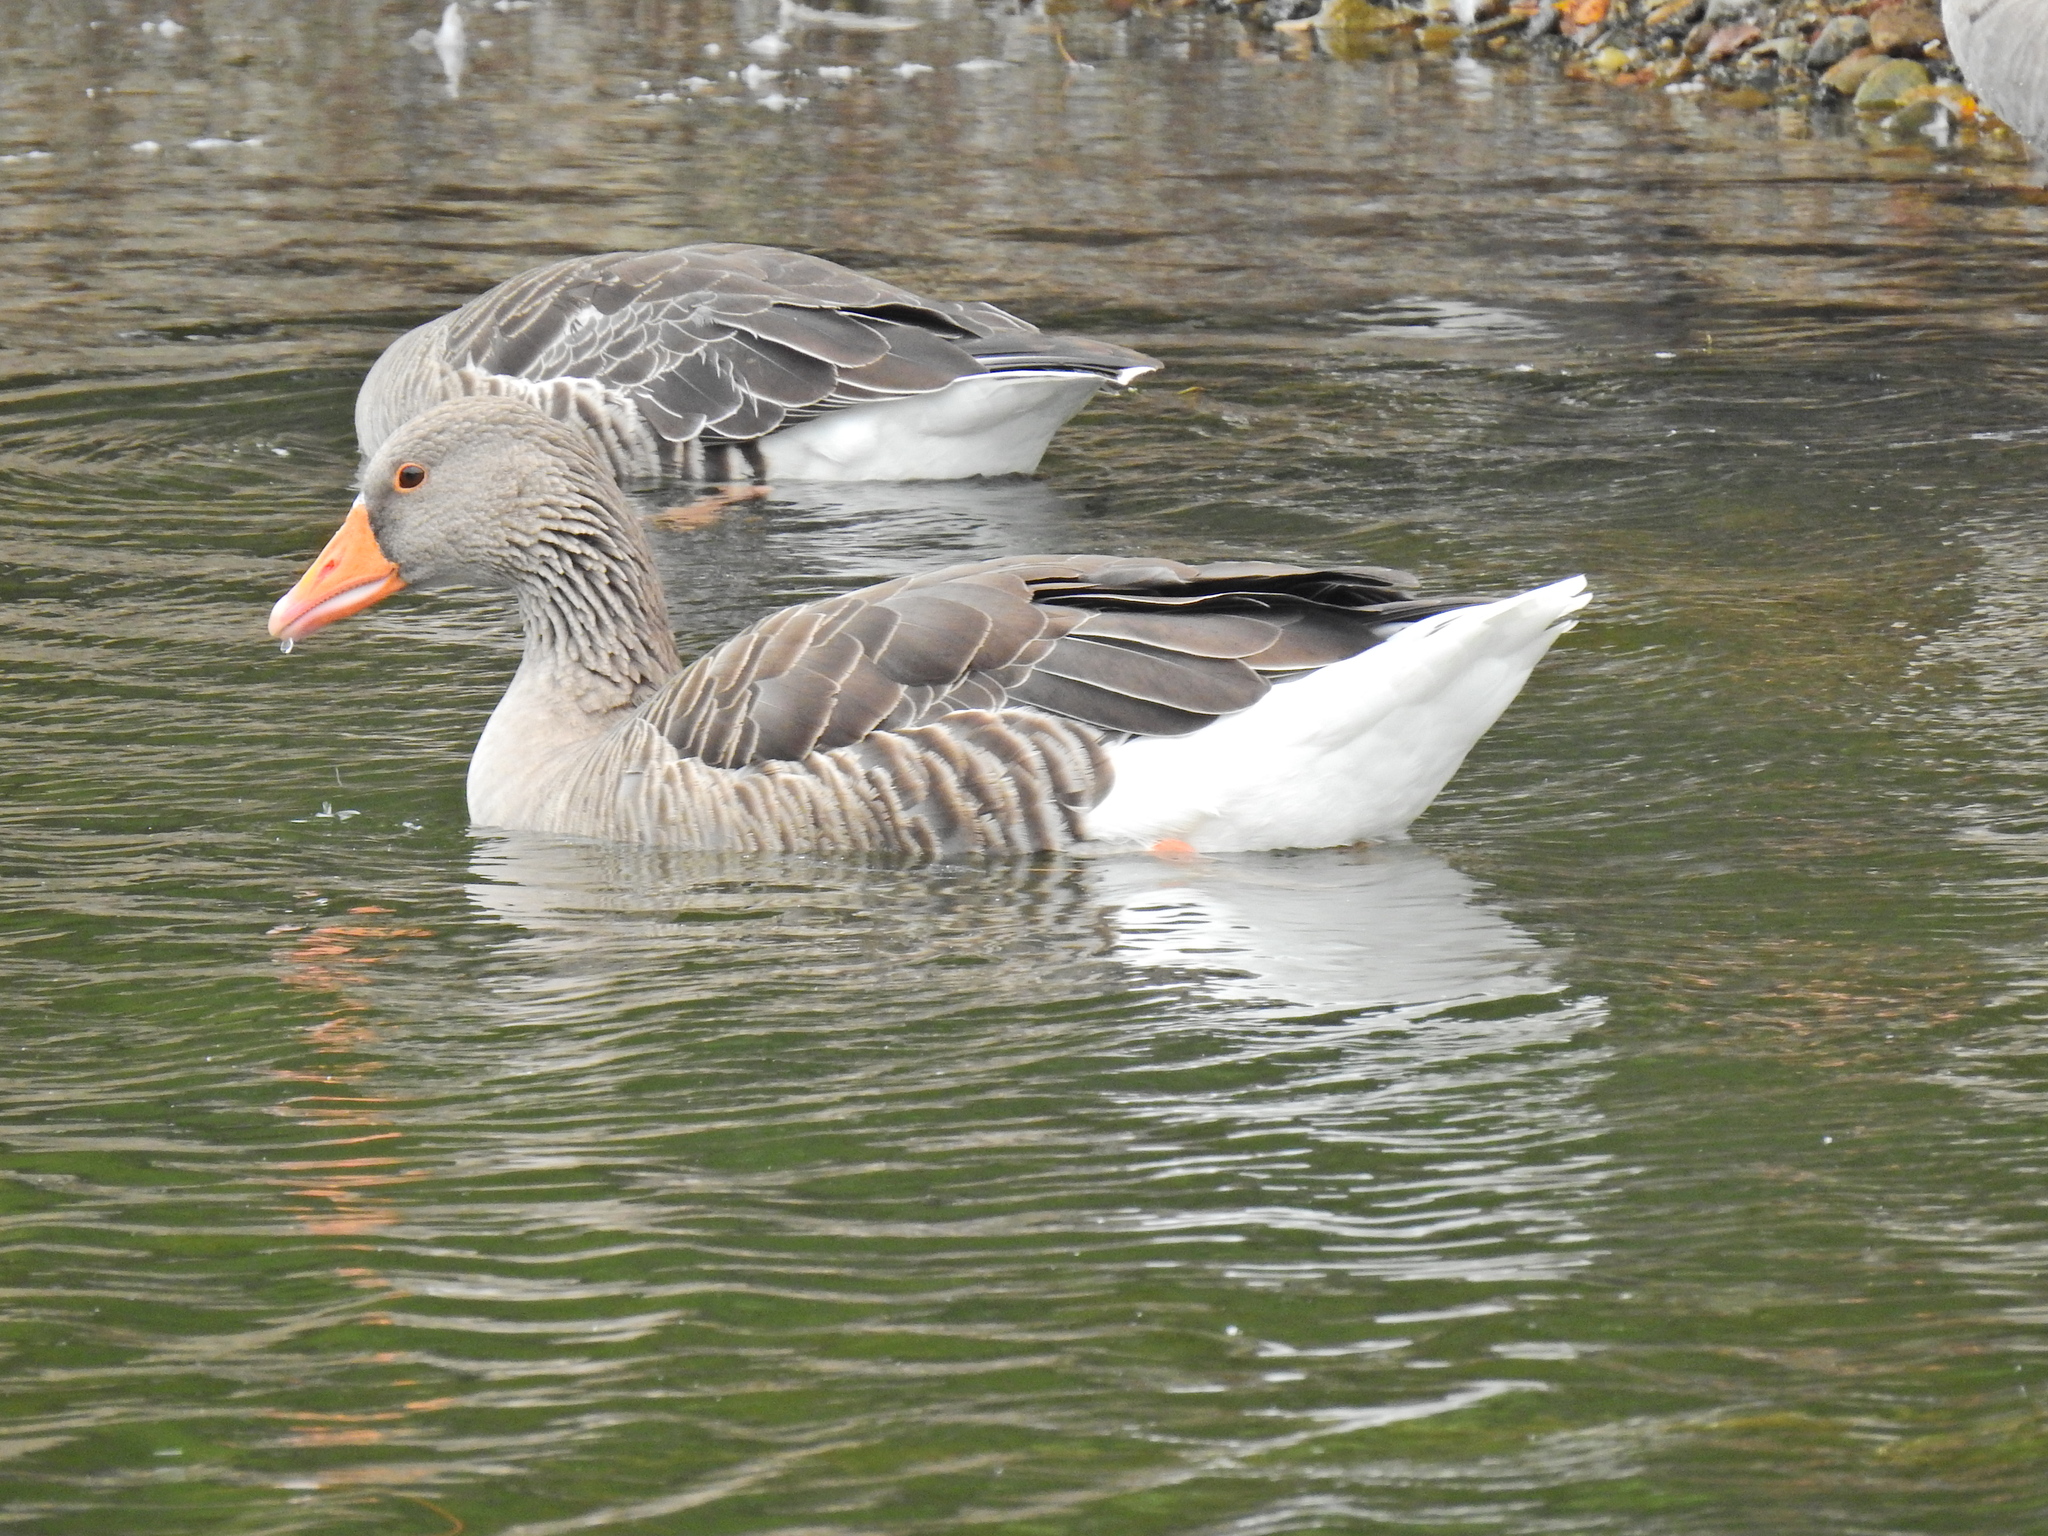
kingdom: Animalia
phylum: Chordata
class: Aves
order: Anseriformes
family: Anatidae
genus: Anser
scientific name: Anser anser
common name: Greylag goose
